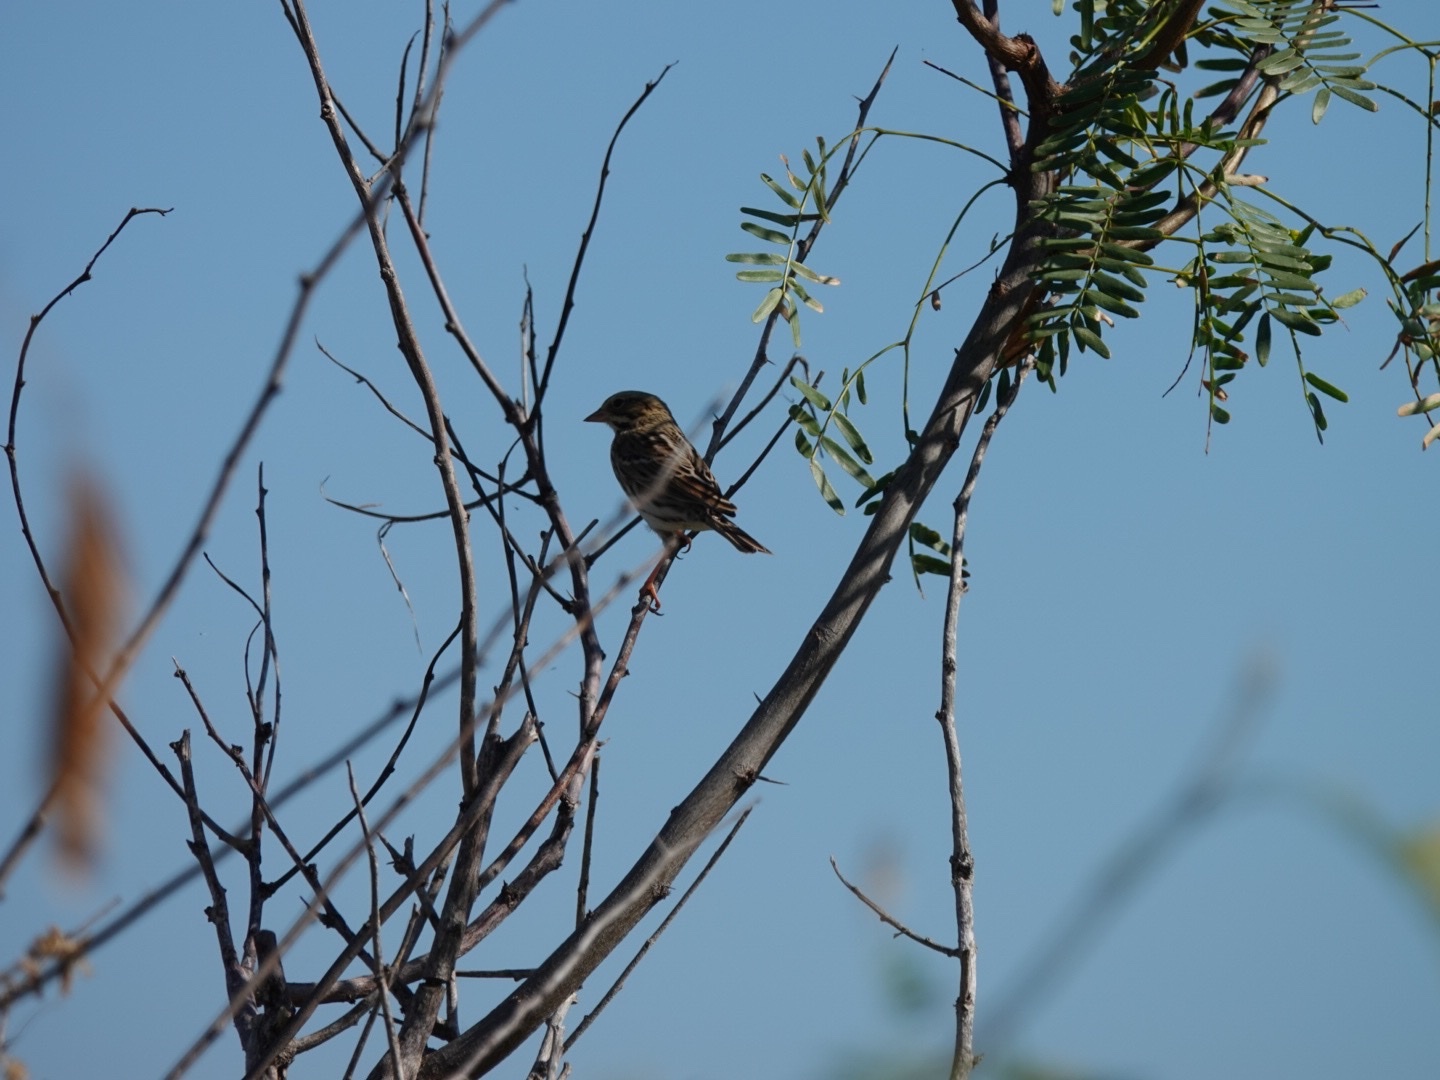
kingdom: Animalia
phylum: Chordata
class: Aves
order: Passeriformes
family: Passerellidae
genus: Passerculus
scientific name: Passerculus sandwichensis
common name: Savannah sparrow
